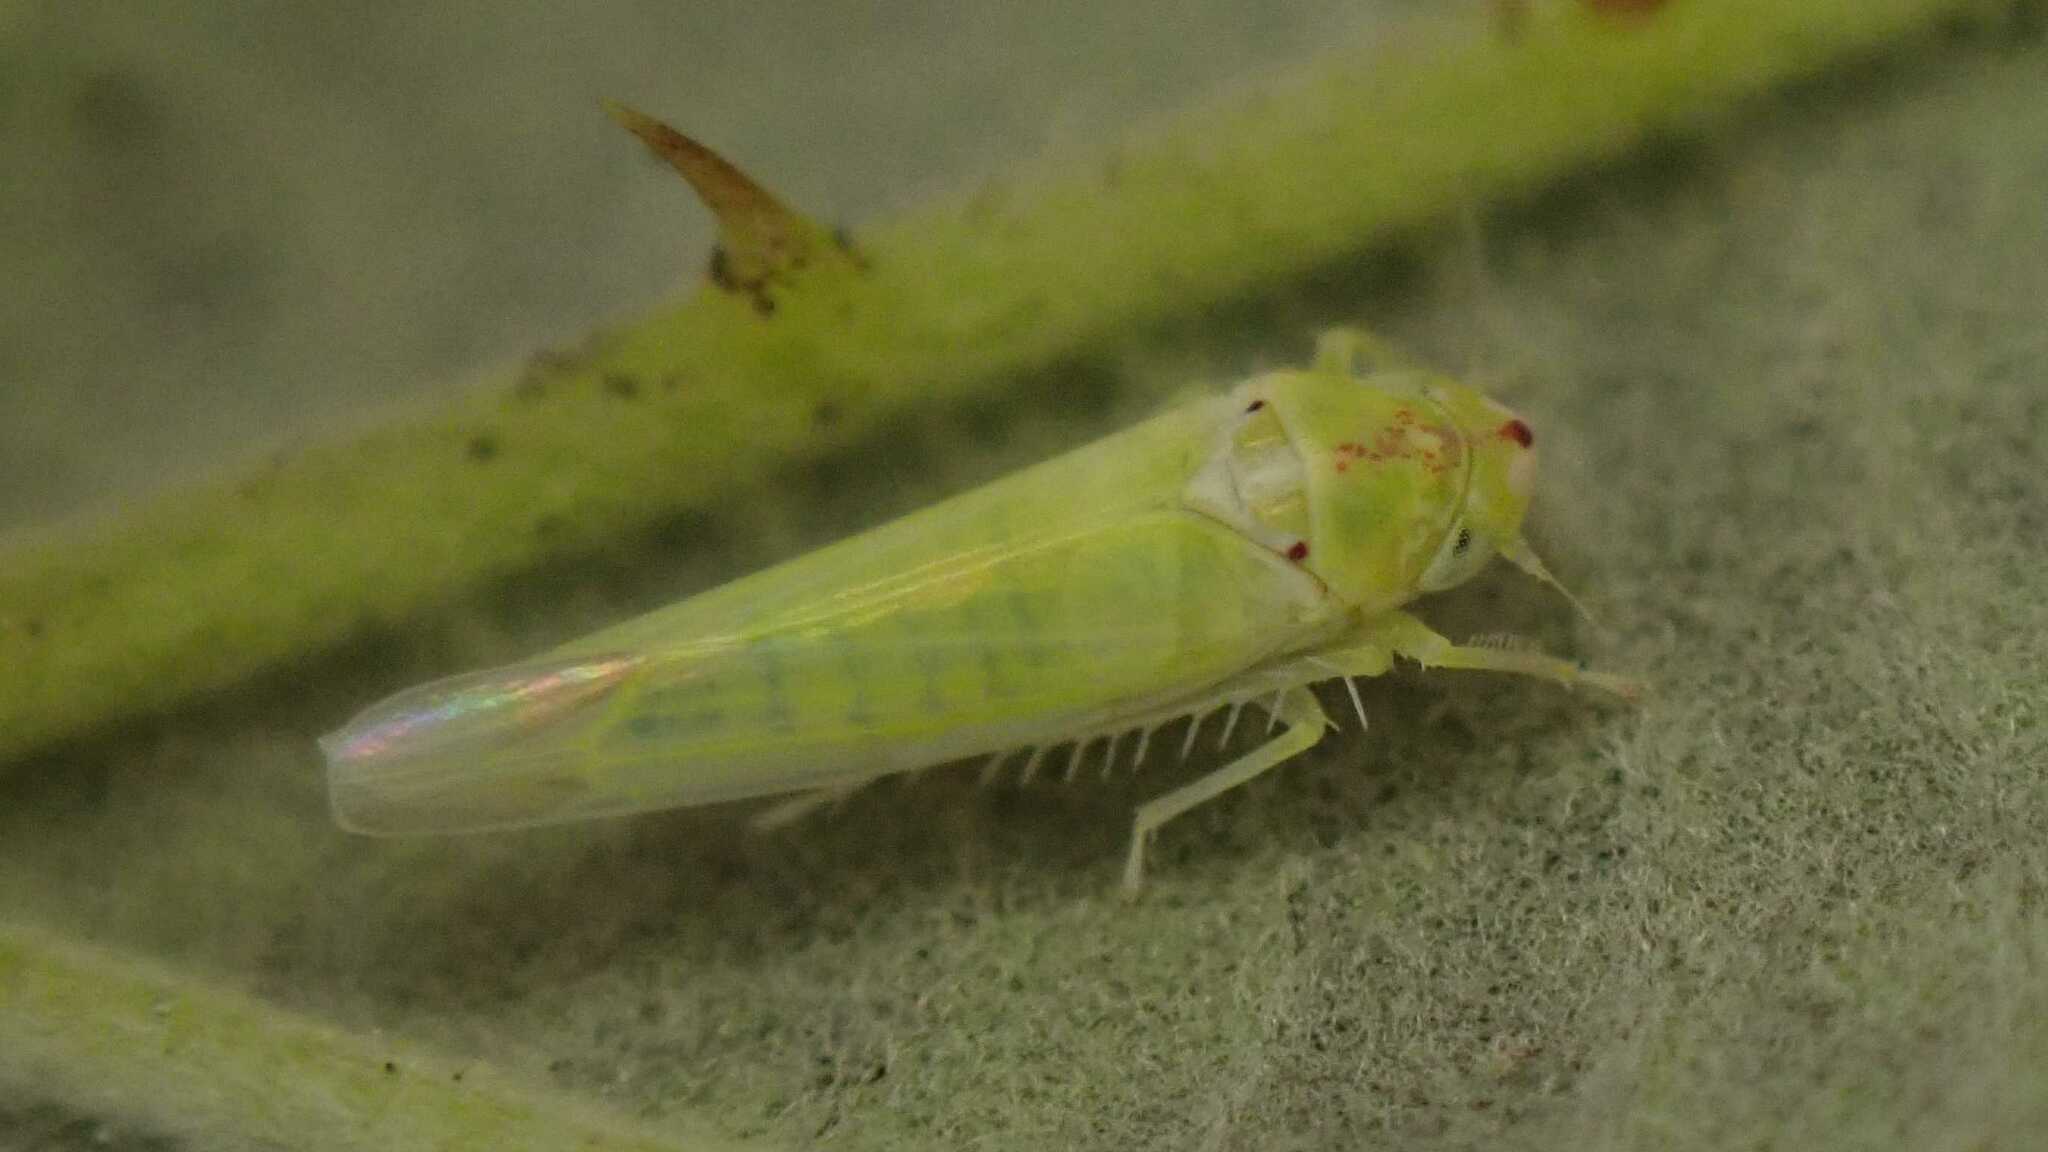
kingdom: Animalia
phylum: Arthropoda
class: Insecta
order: Hemiptera
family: Cicadellidae
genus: Zygina
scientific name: Zygina nivea
